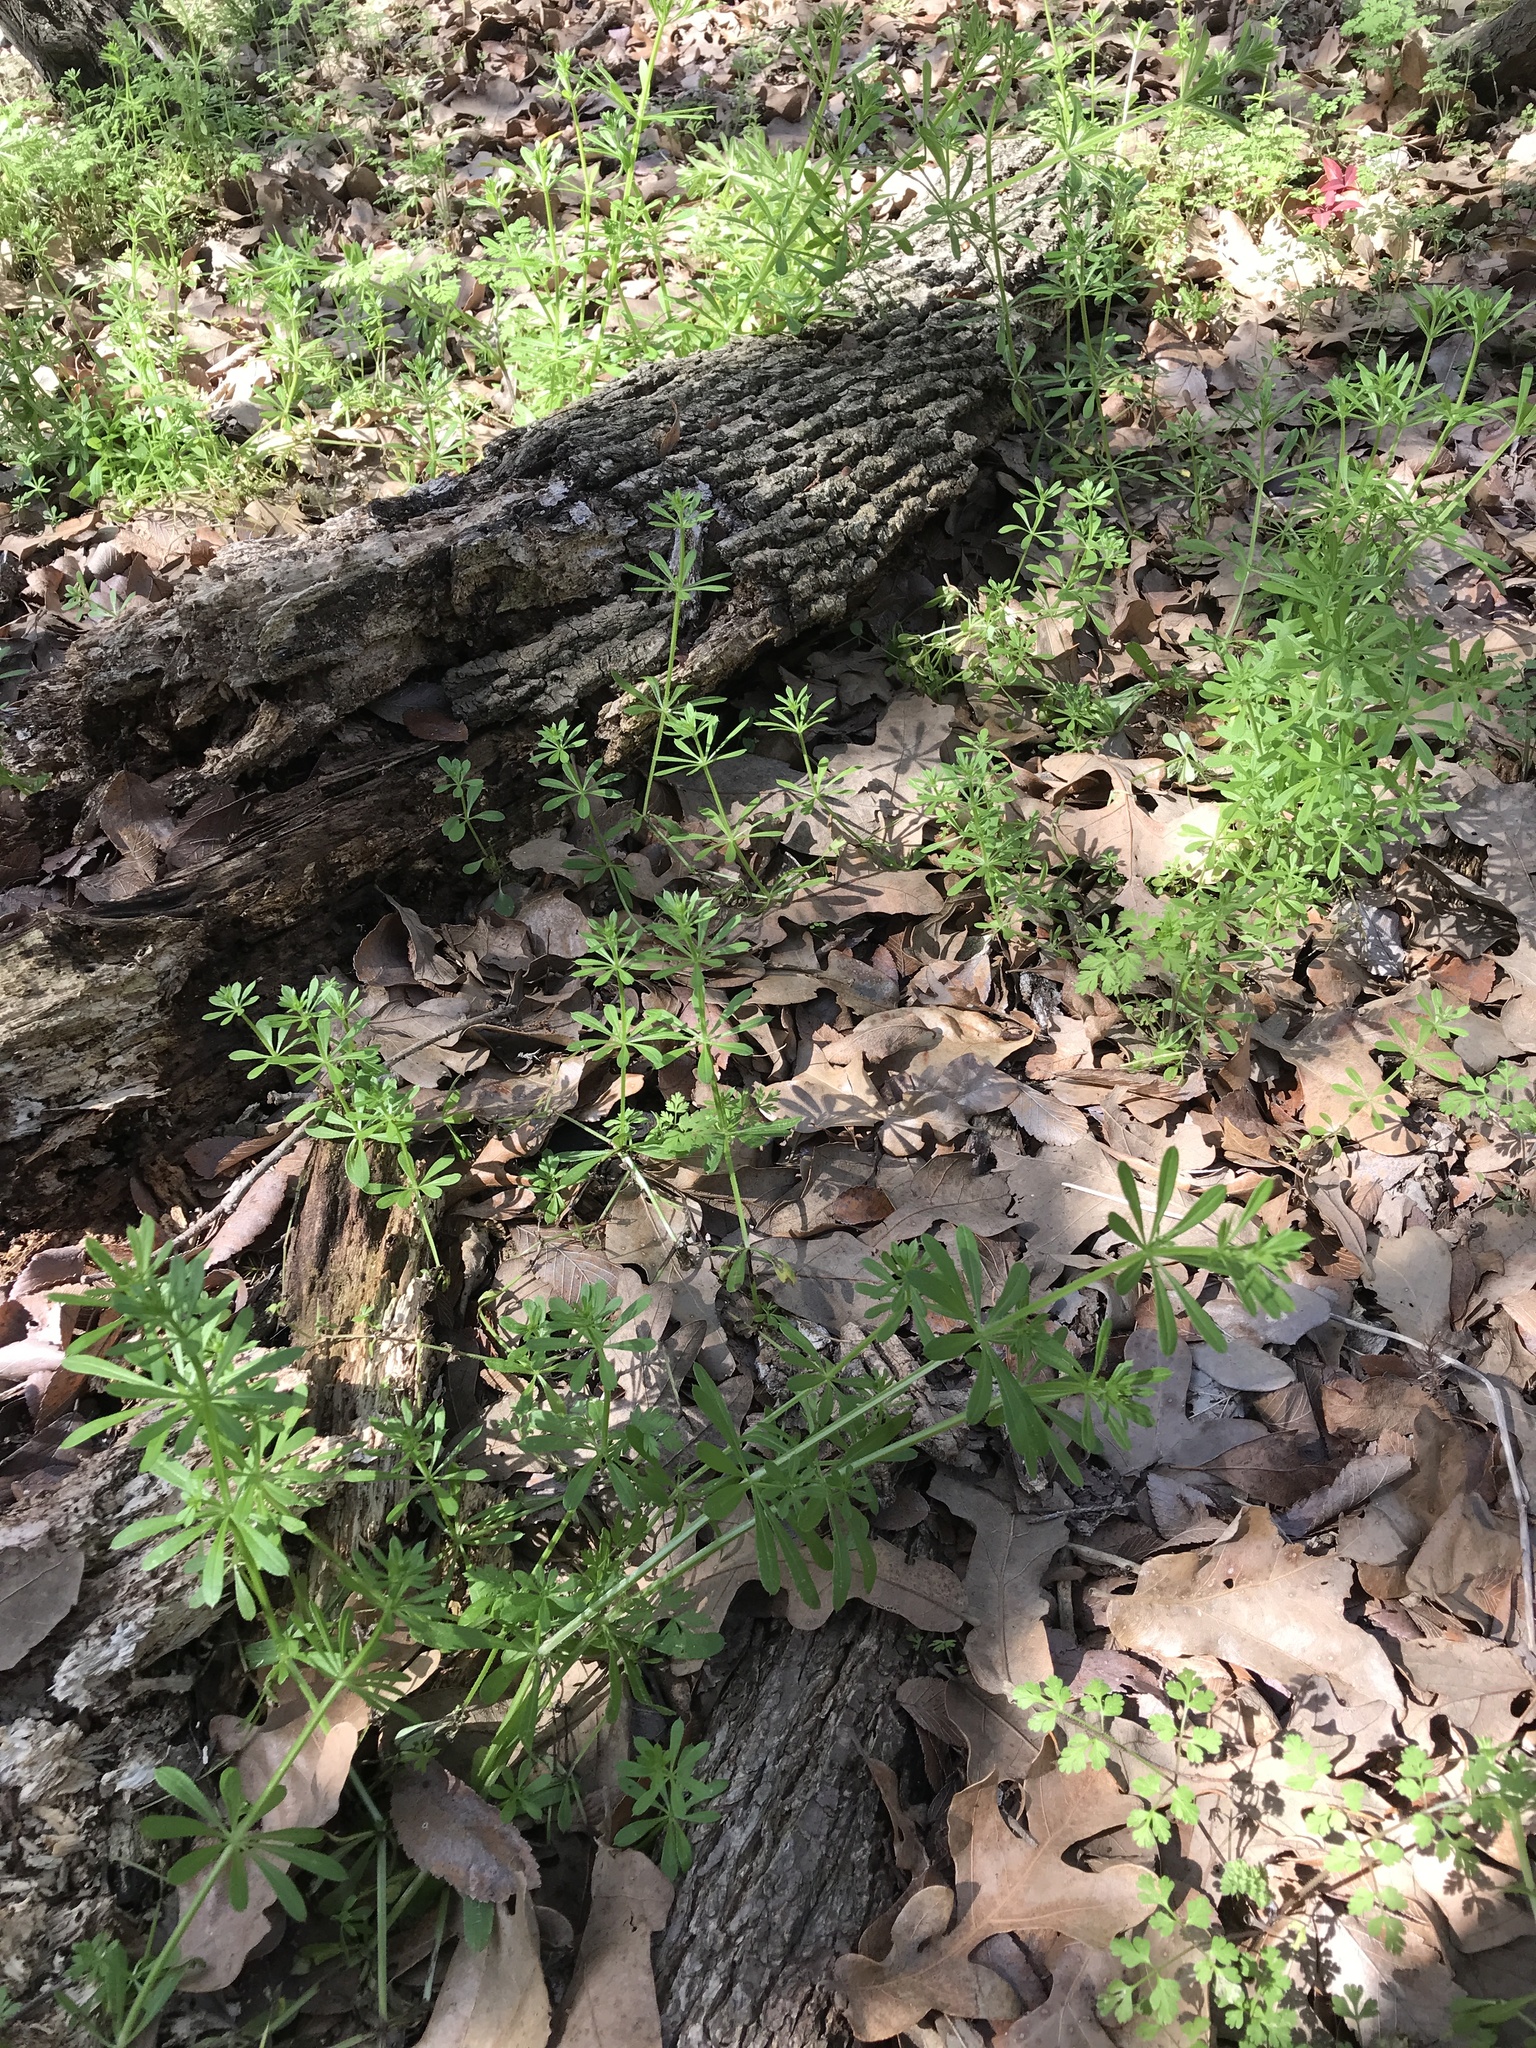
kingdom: Plantae
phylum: Tracheophyta
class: Magnoliopsida
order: Gentianales
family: Rubiaceae
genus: Galium
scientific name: Galium aparine
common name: Cleavers
